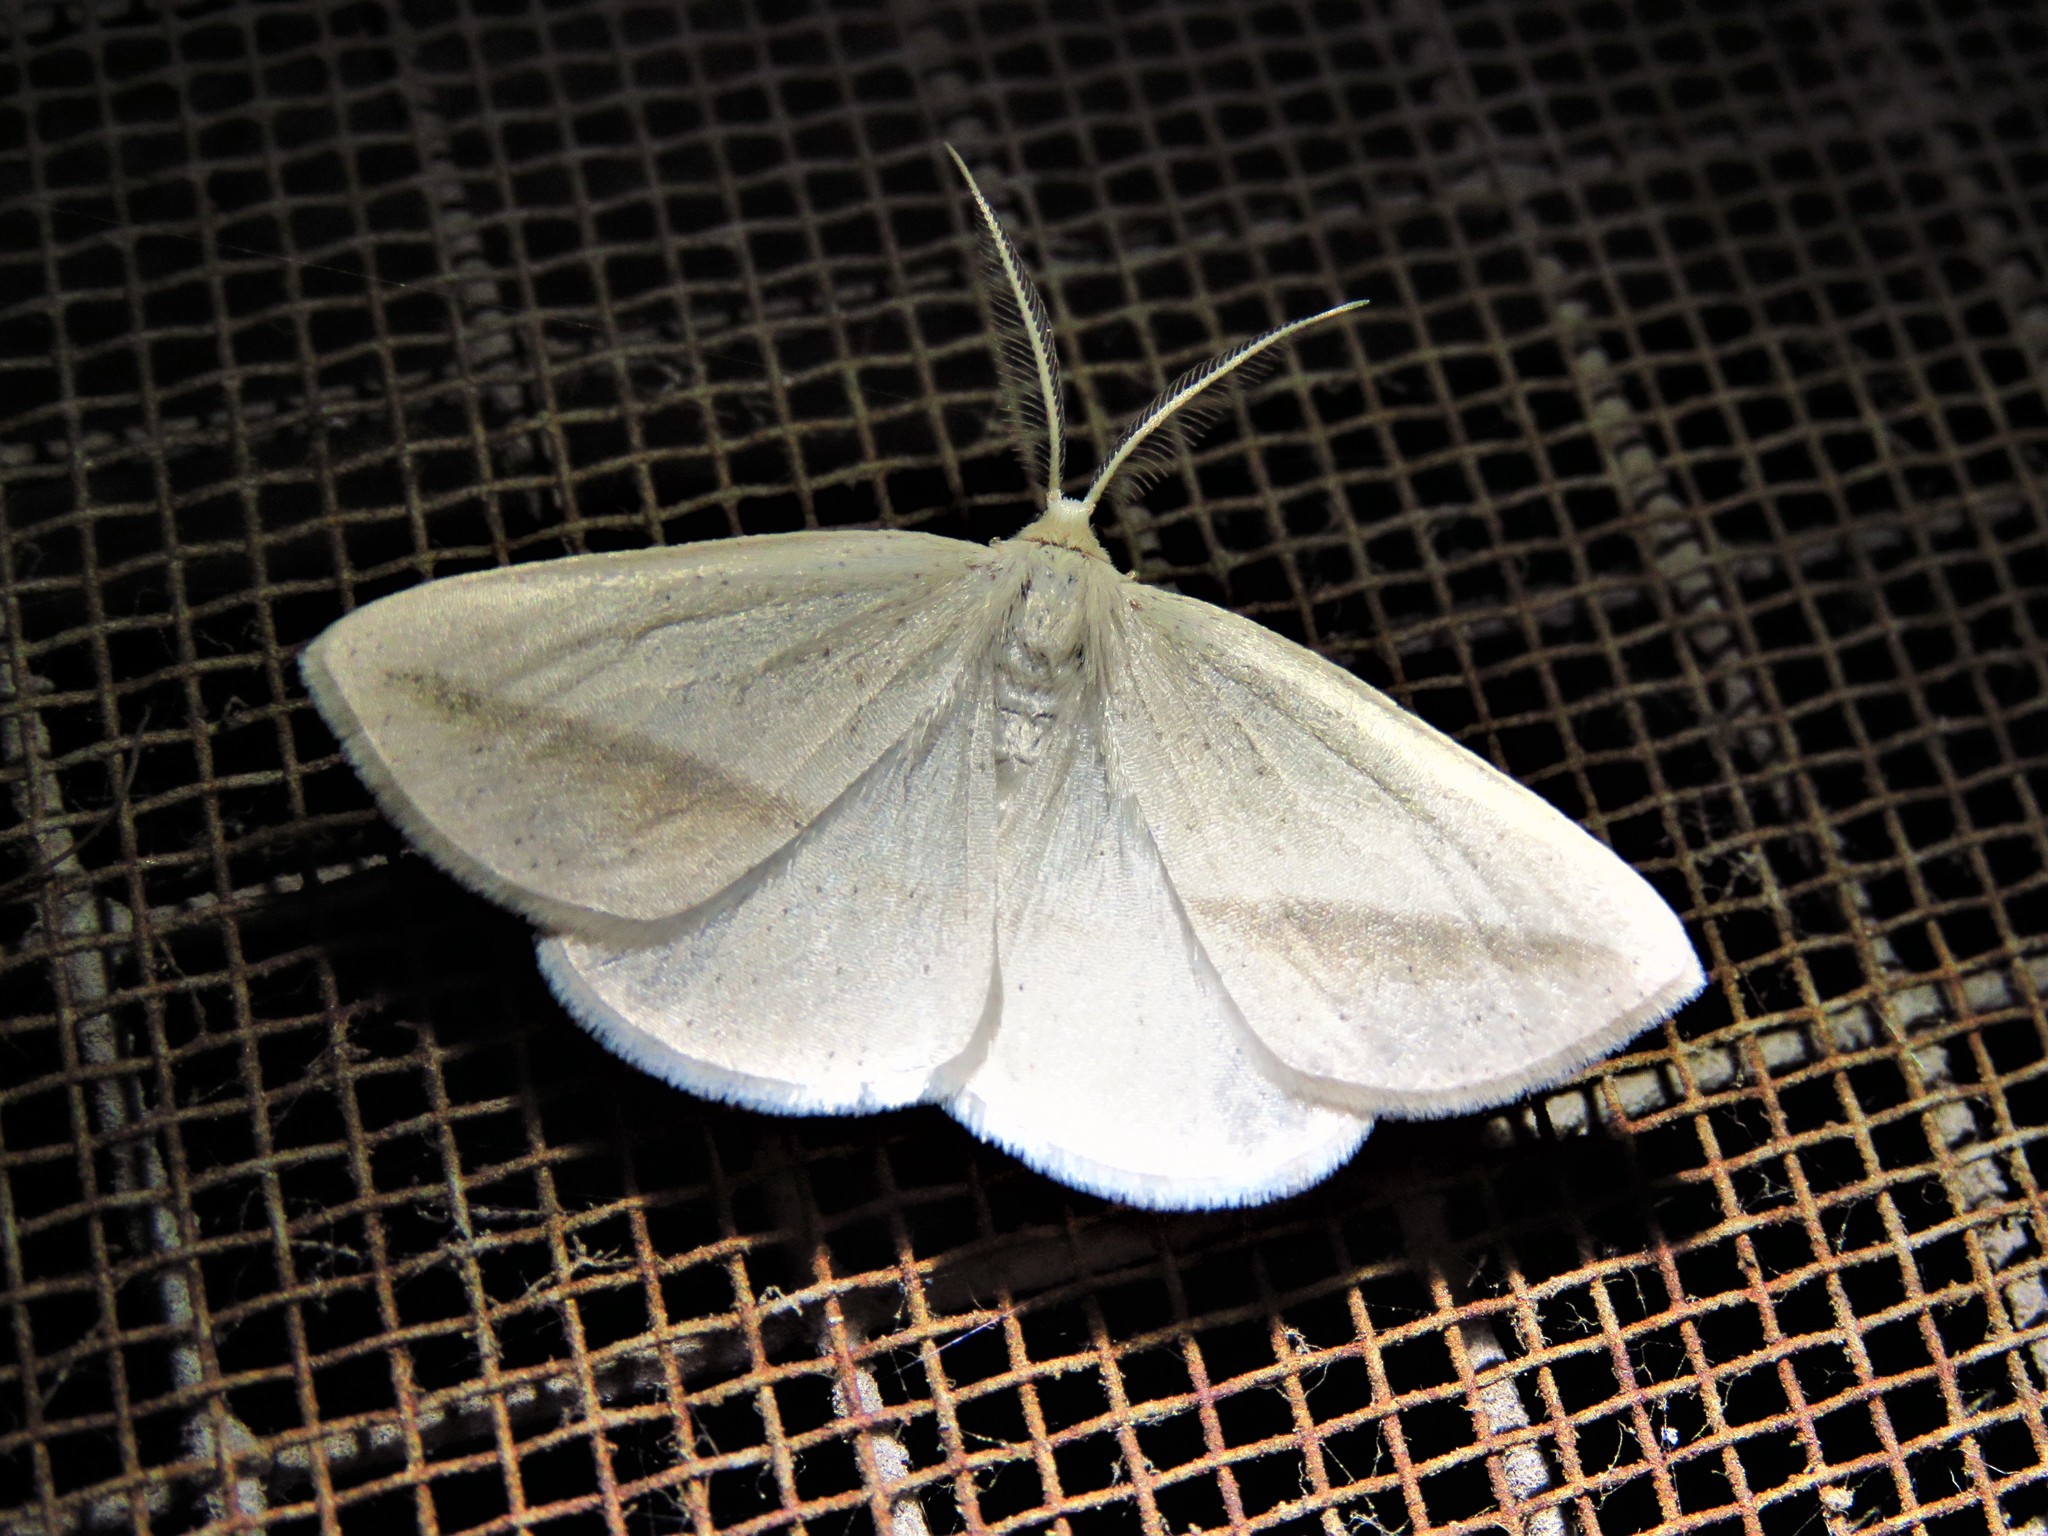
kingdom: Animalia
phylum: Arthropoda
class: Insecta
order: Lepidoptera
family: Geometridae
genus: Lychnosea
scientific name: Lychnosea intermicata
